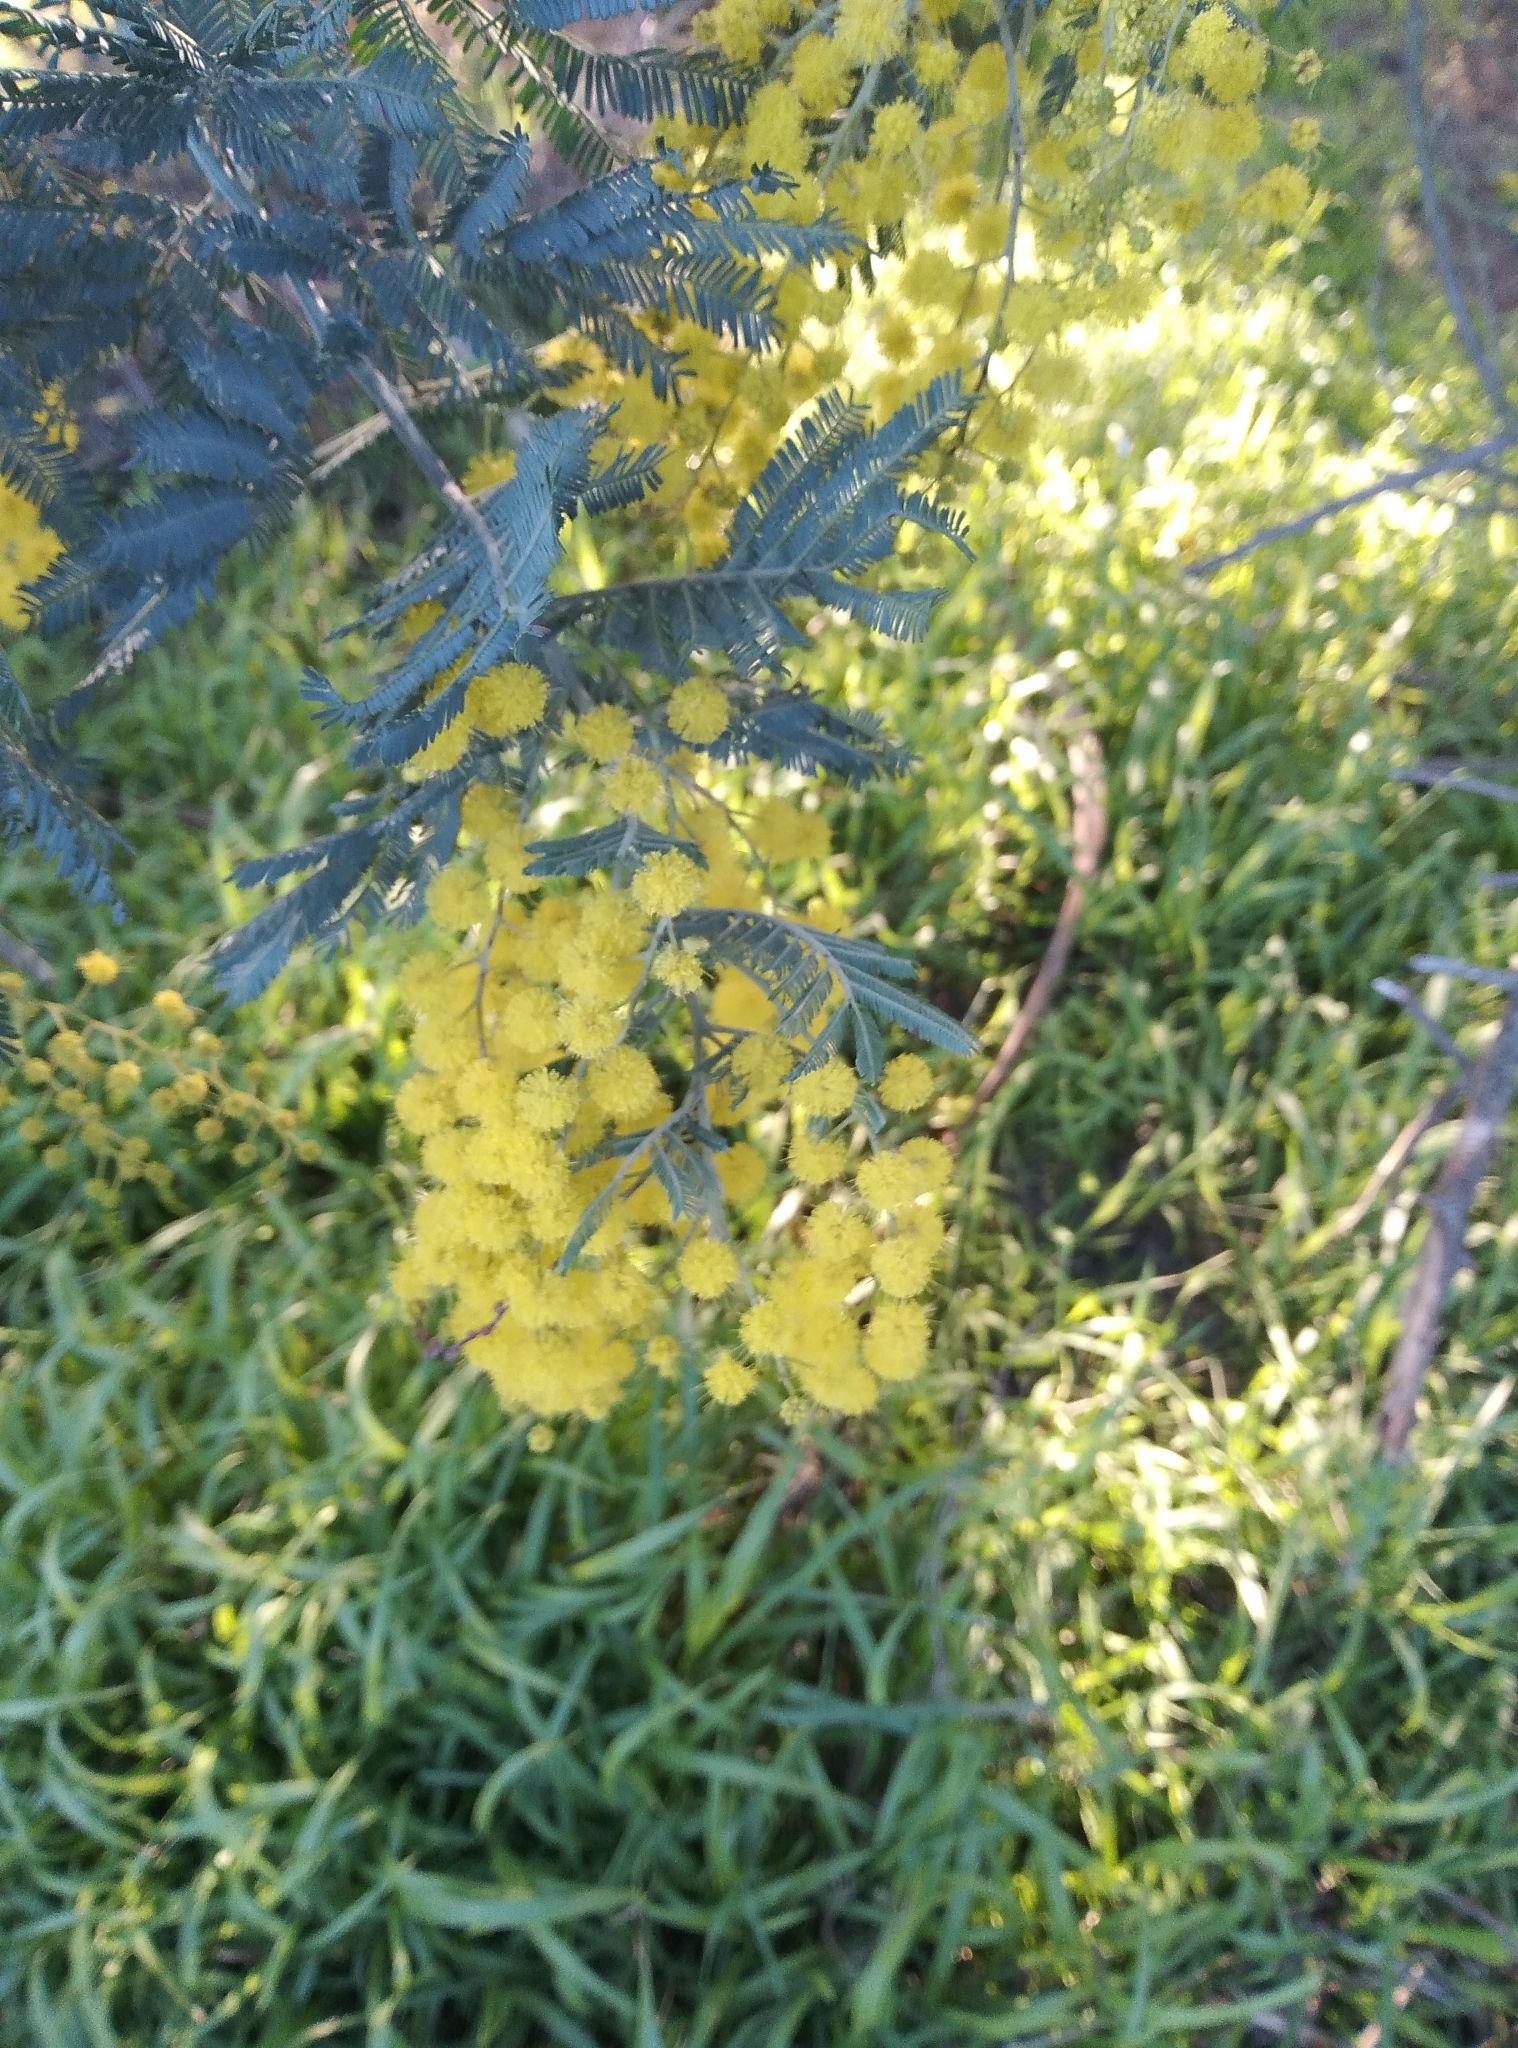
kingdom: Plantae
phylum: Tracheophyta
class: Magnoliopsida
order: Fabales
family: Fabaceae
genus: Acacia
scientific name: Acacia dealbata
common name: Silver wattle
